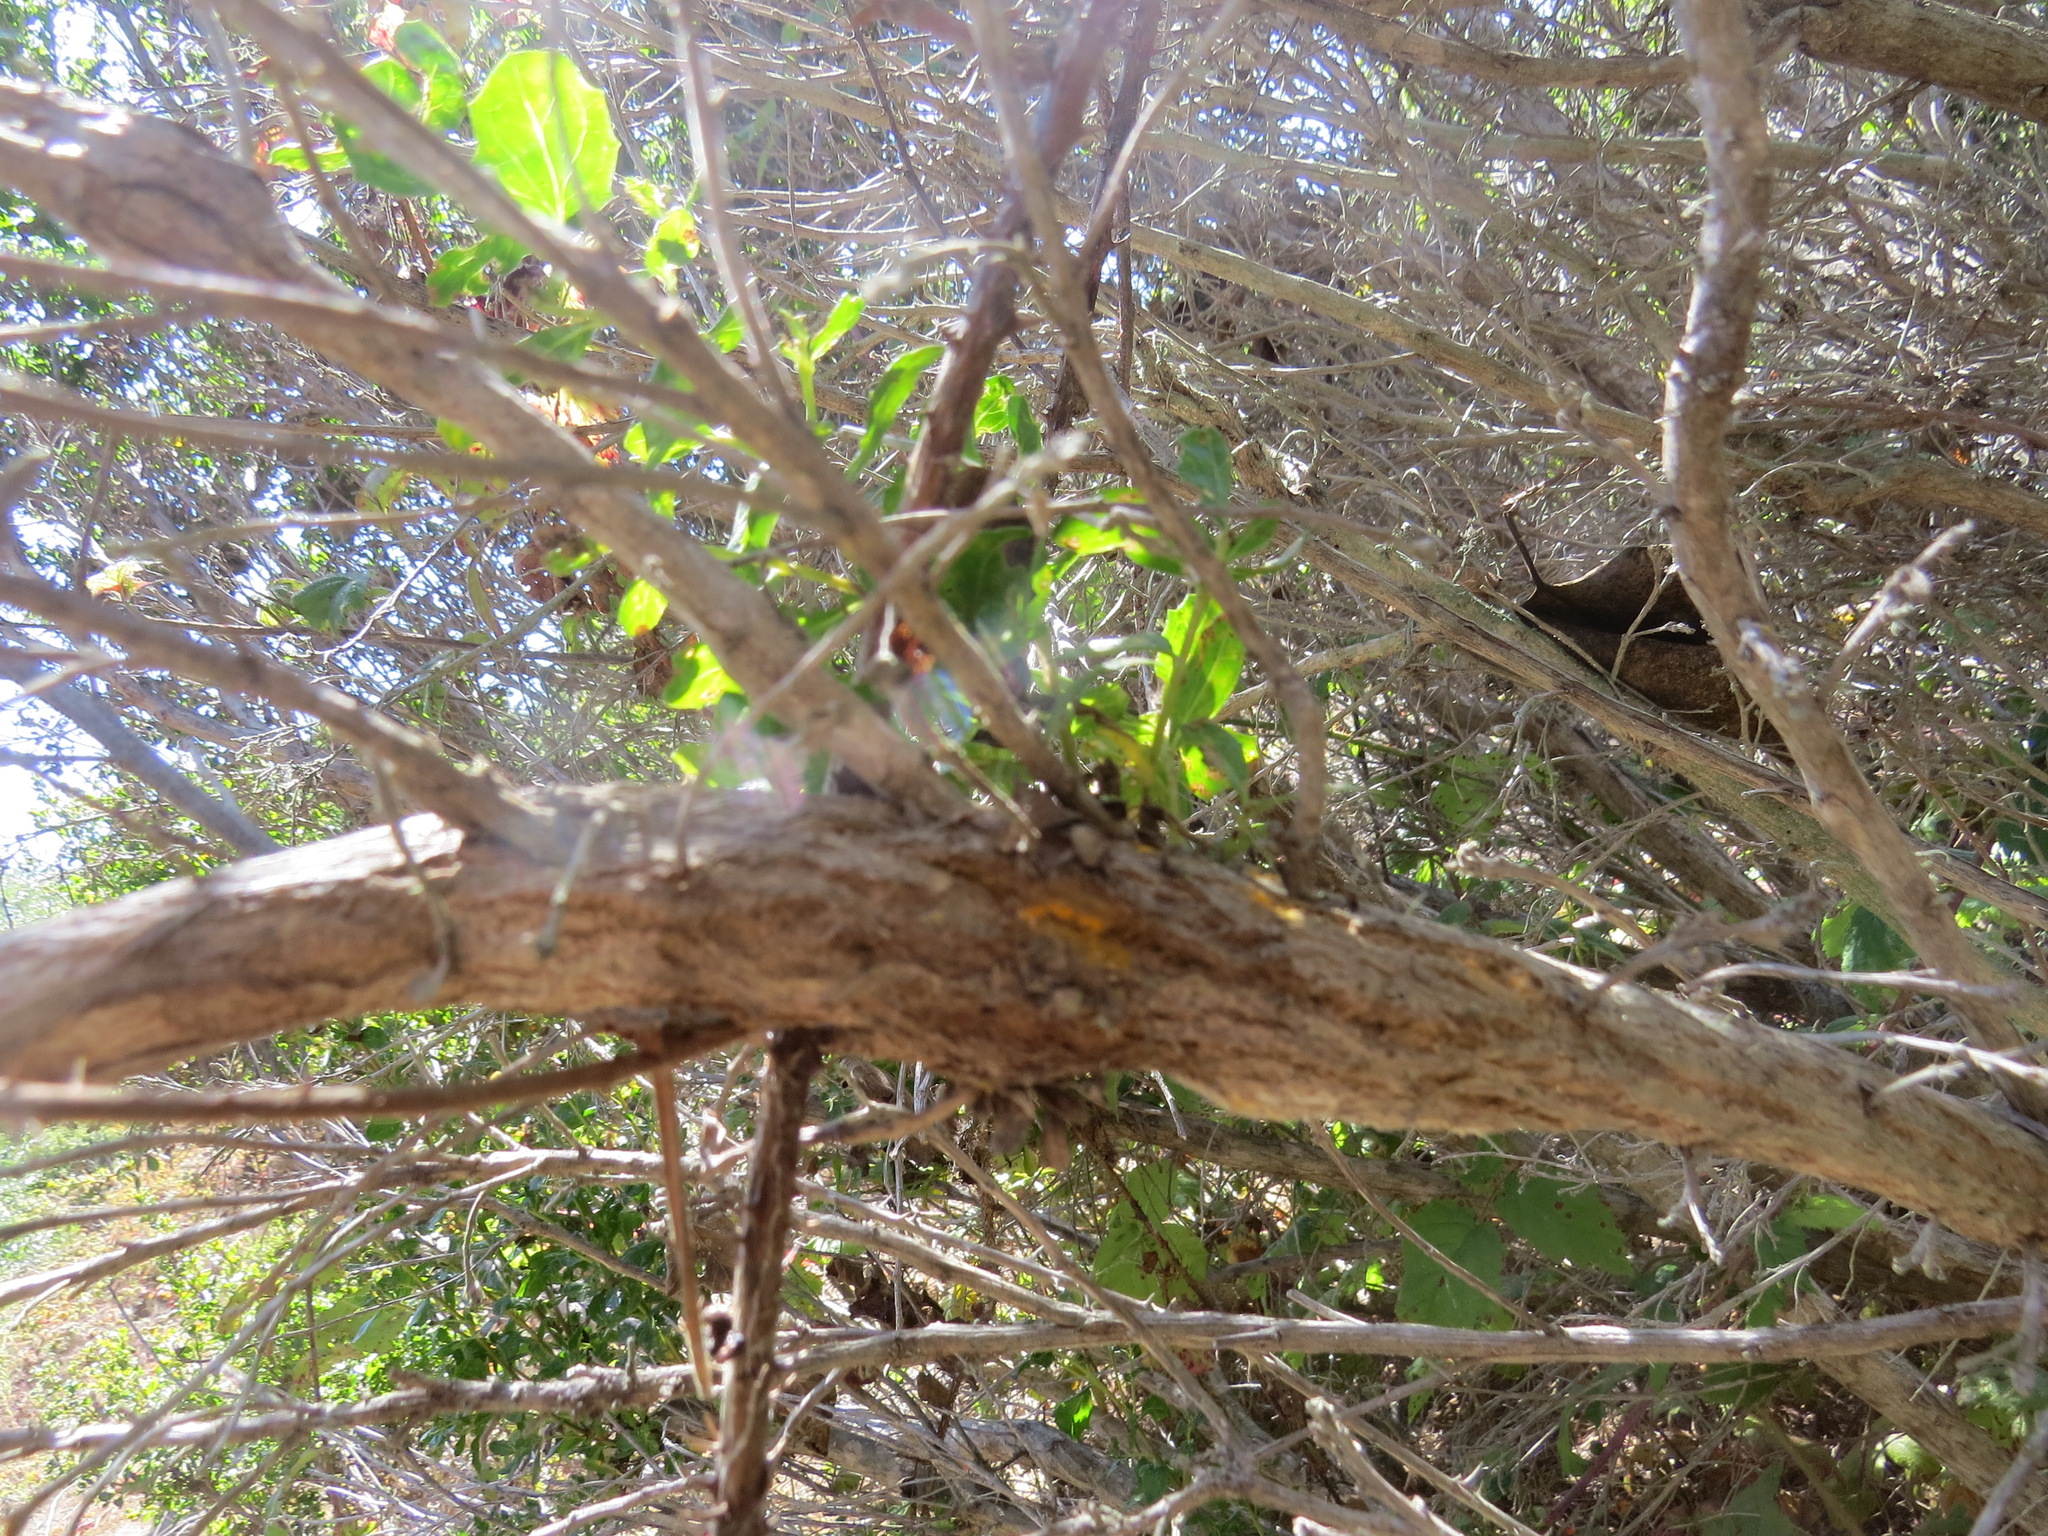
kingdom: Fungi
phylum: Basidiomycota
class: Pucciniomycetes
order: Pucciniales
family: Pucciniaceae
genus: Eriosporangium
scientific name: Eriosporangium evadens
